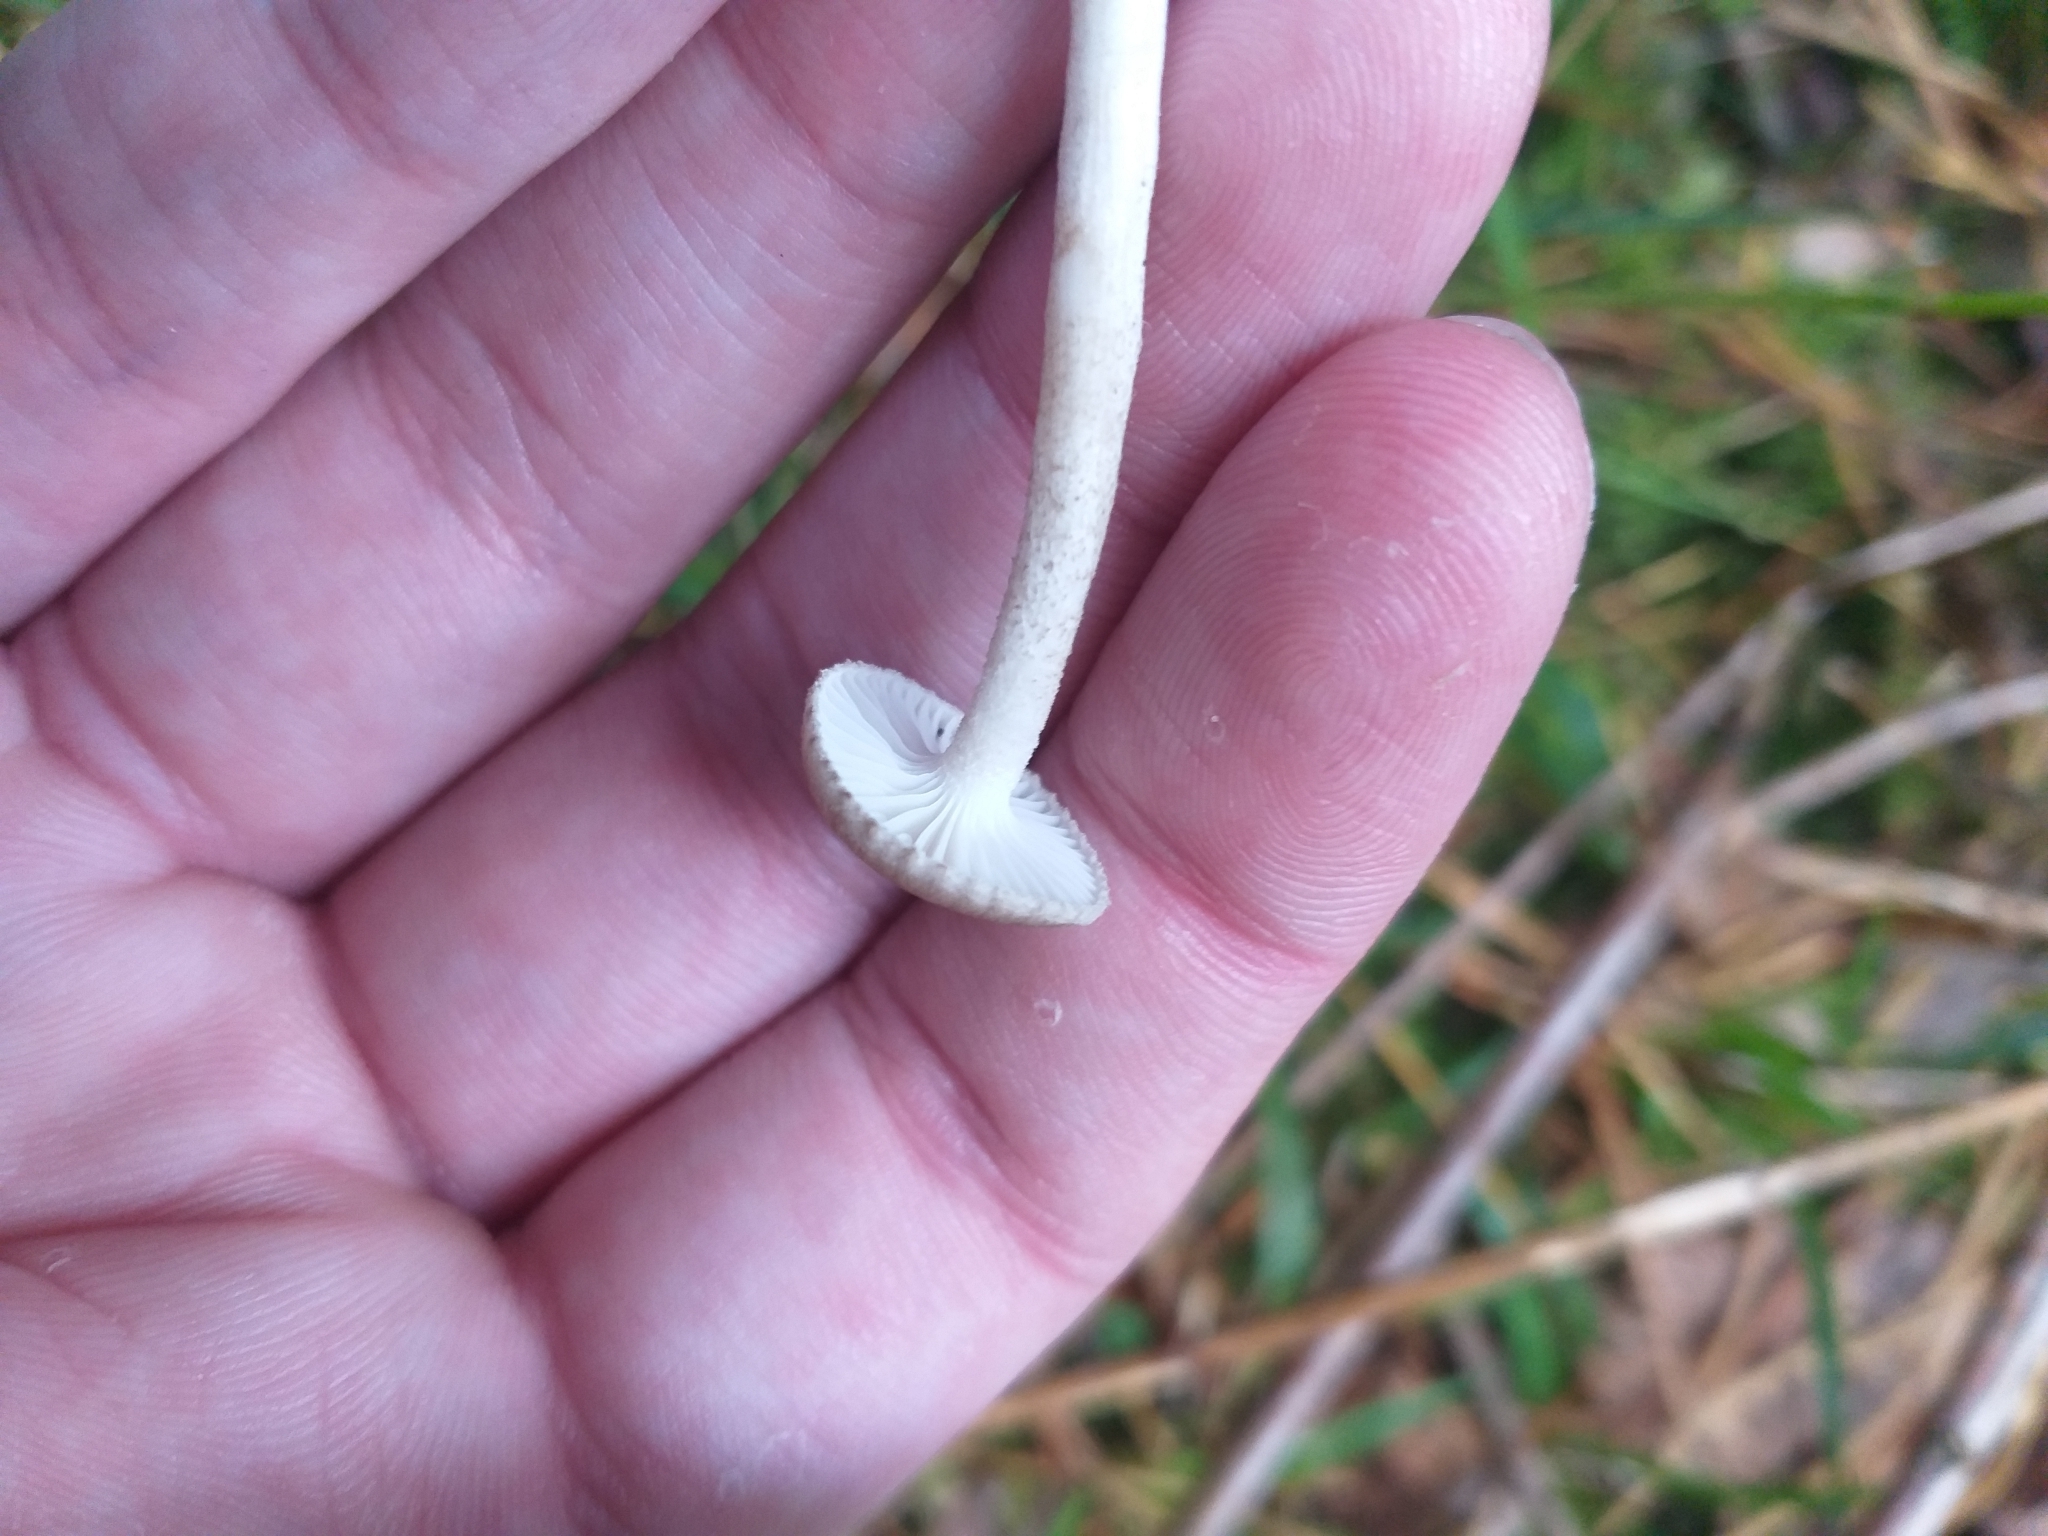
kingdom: Fungi
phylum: Basidiomycota
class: Agaricomycetes
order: Agaricales
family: Hygrophoraceae
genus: Hygrophorus
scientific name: Hygrophorus pustulatus
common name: Blistered woodwax
